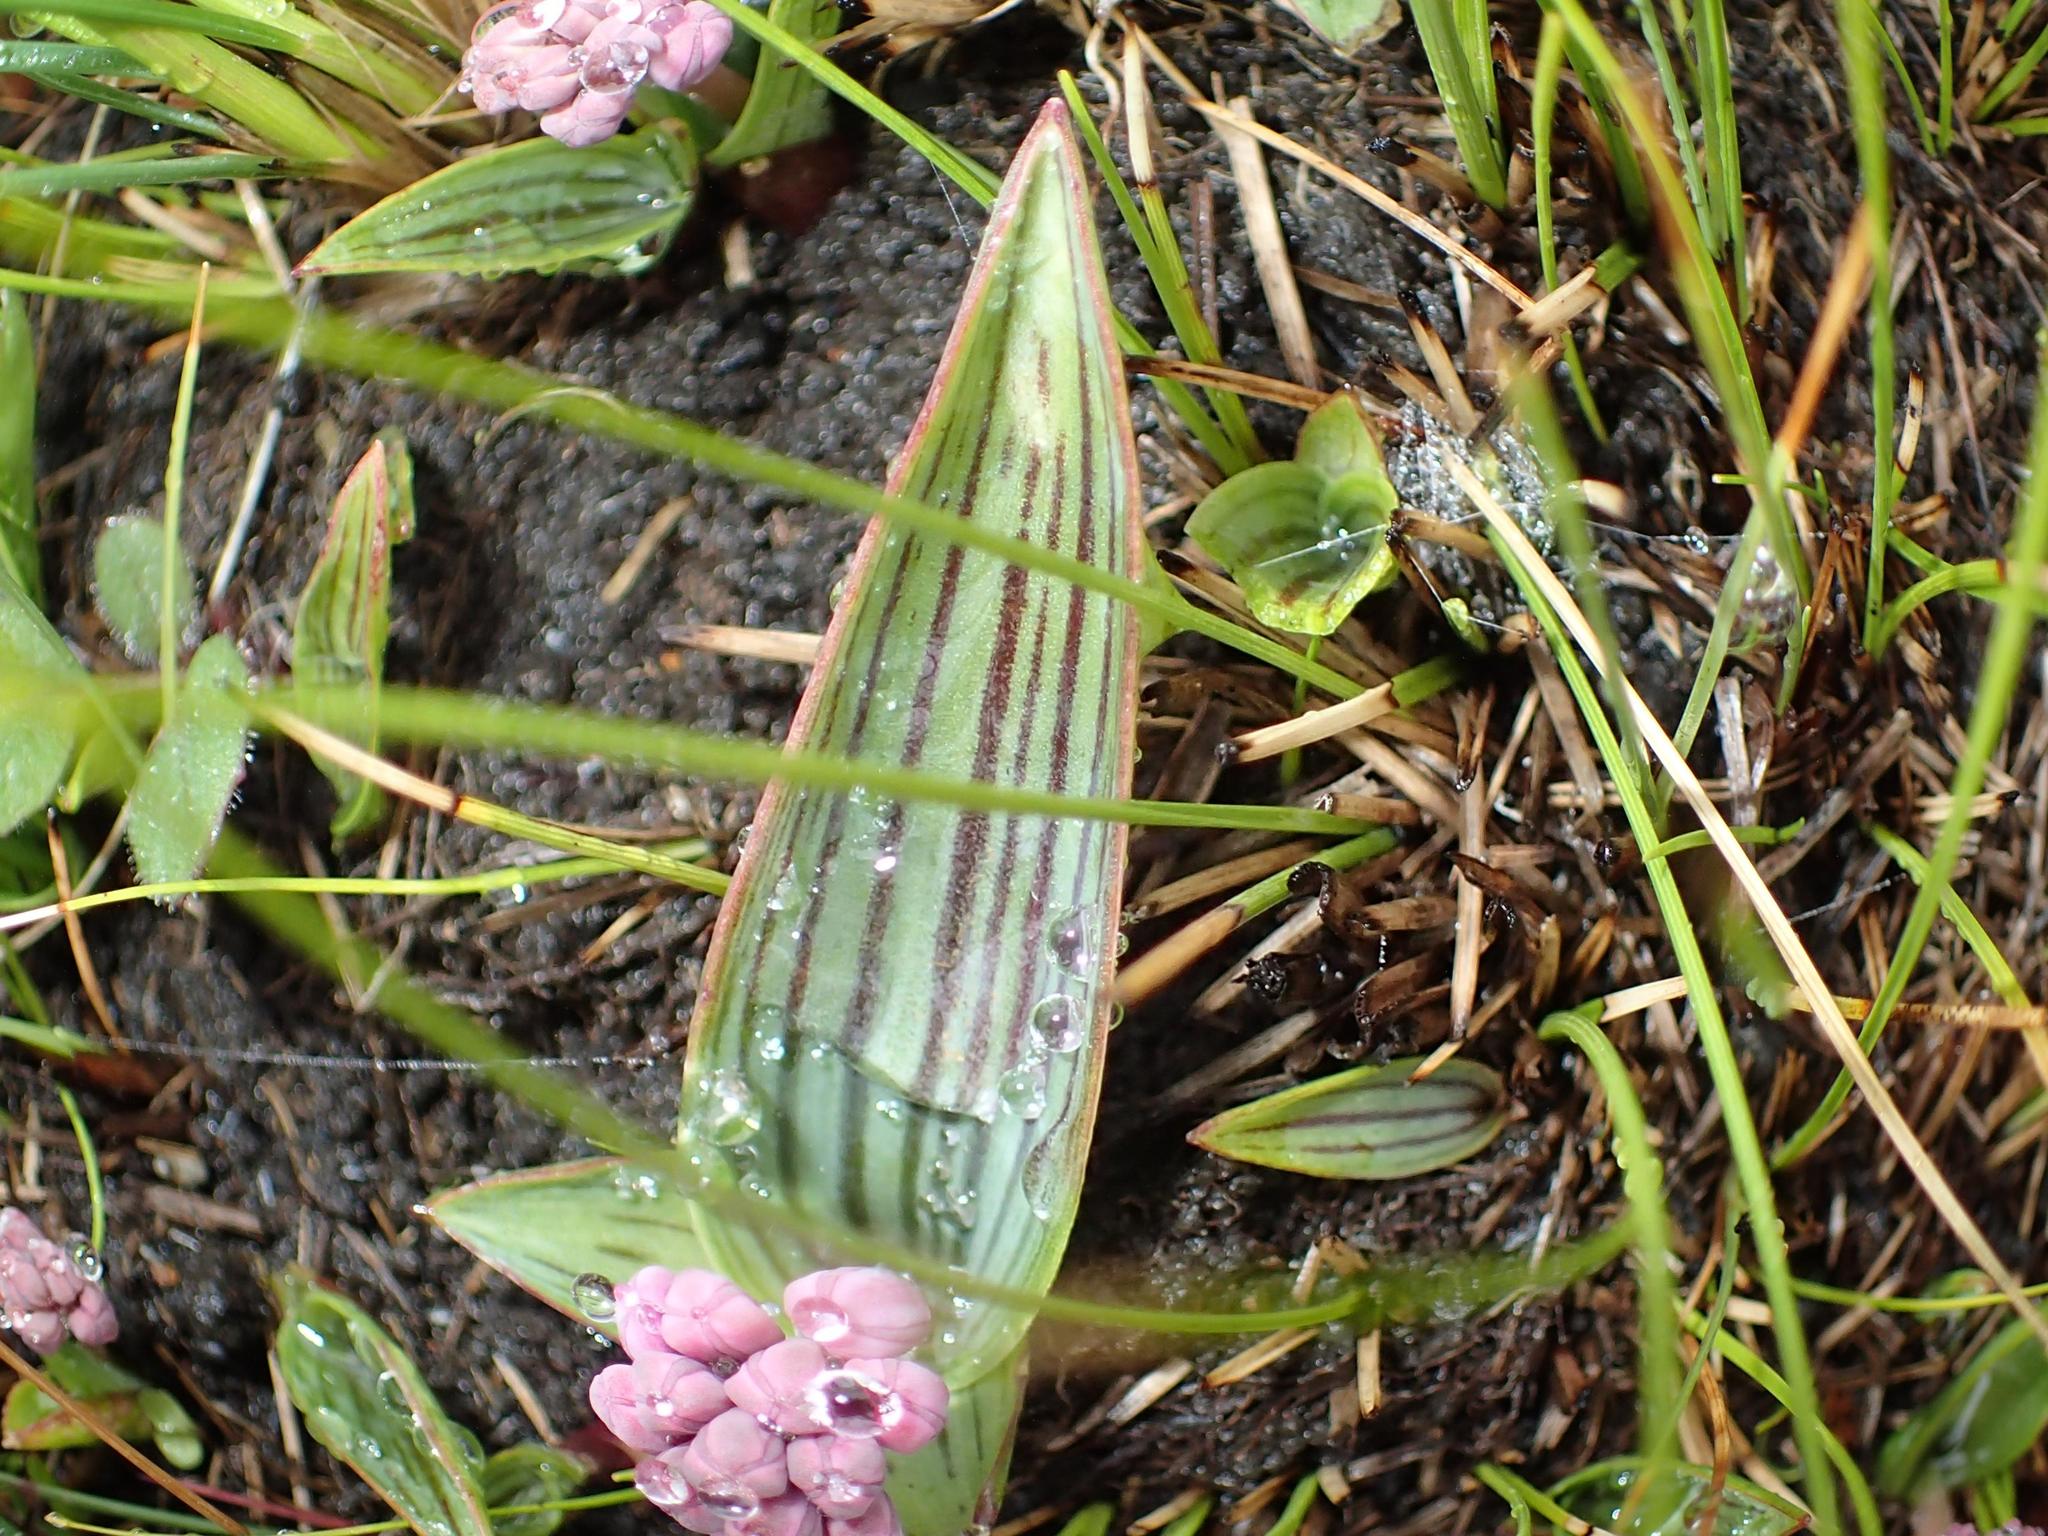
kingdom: Plantae
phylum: Tracheophyta
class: Liliopsida
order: Asparagales
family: Asparagaceae
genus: Ledebouria
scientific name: Ledebouria cooperi
